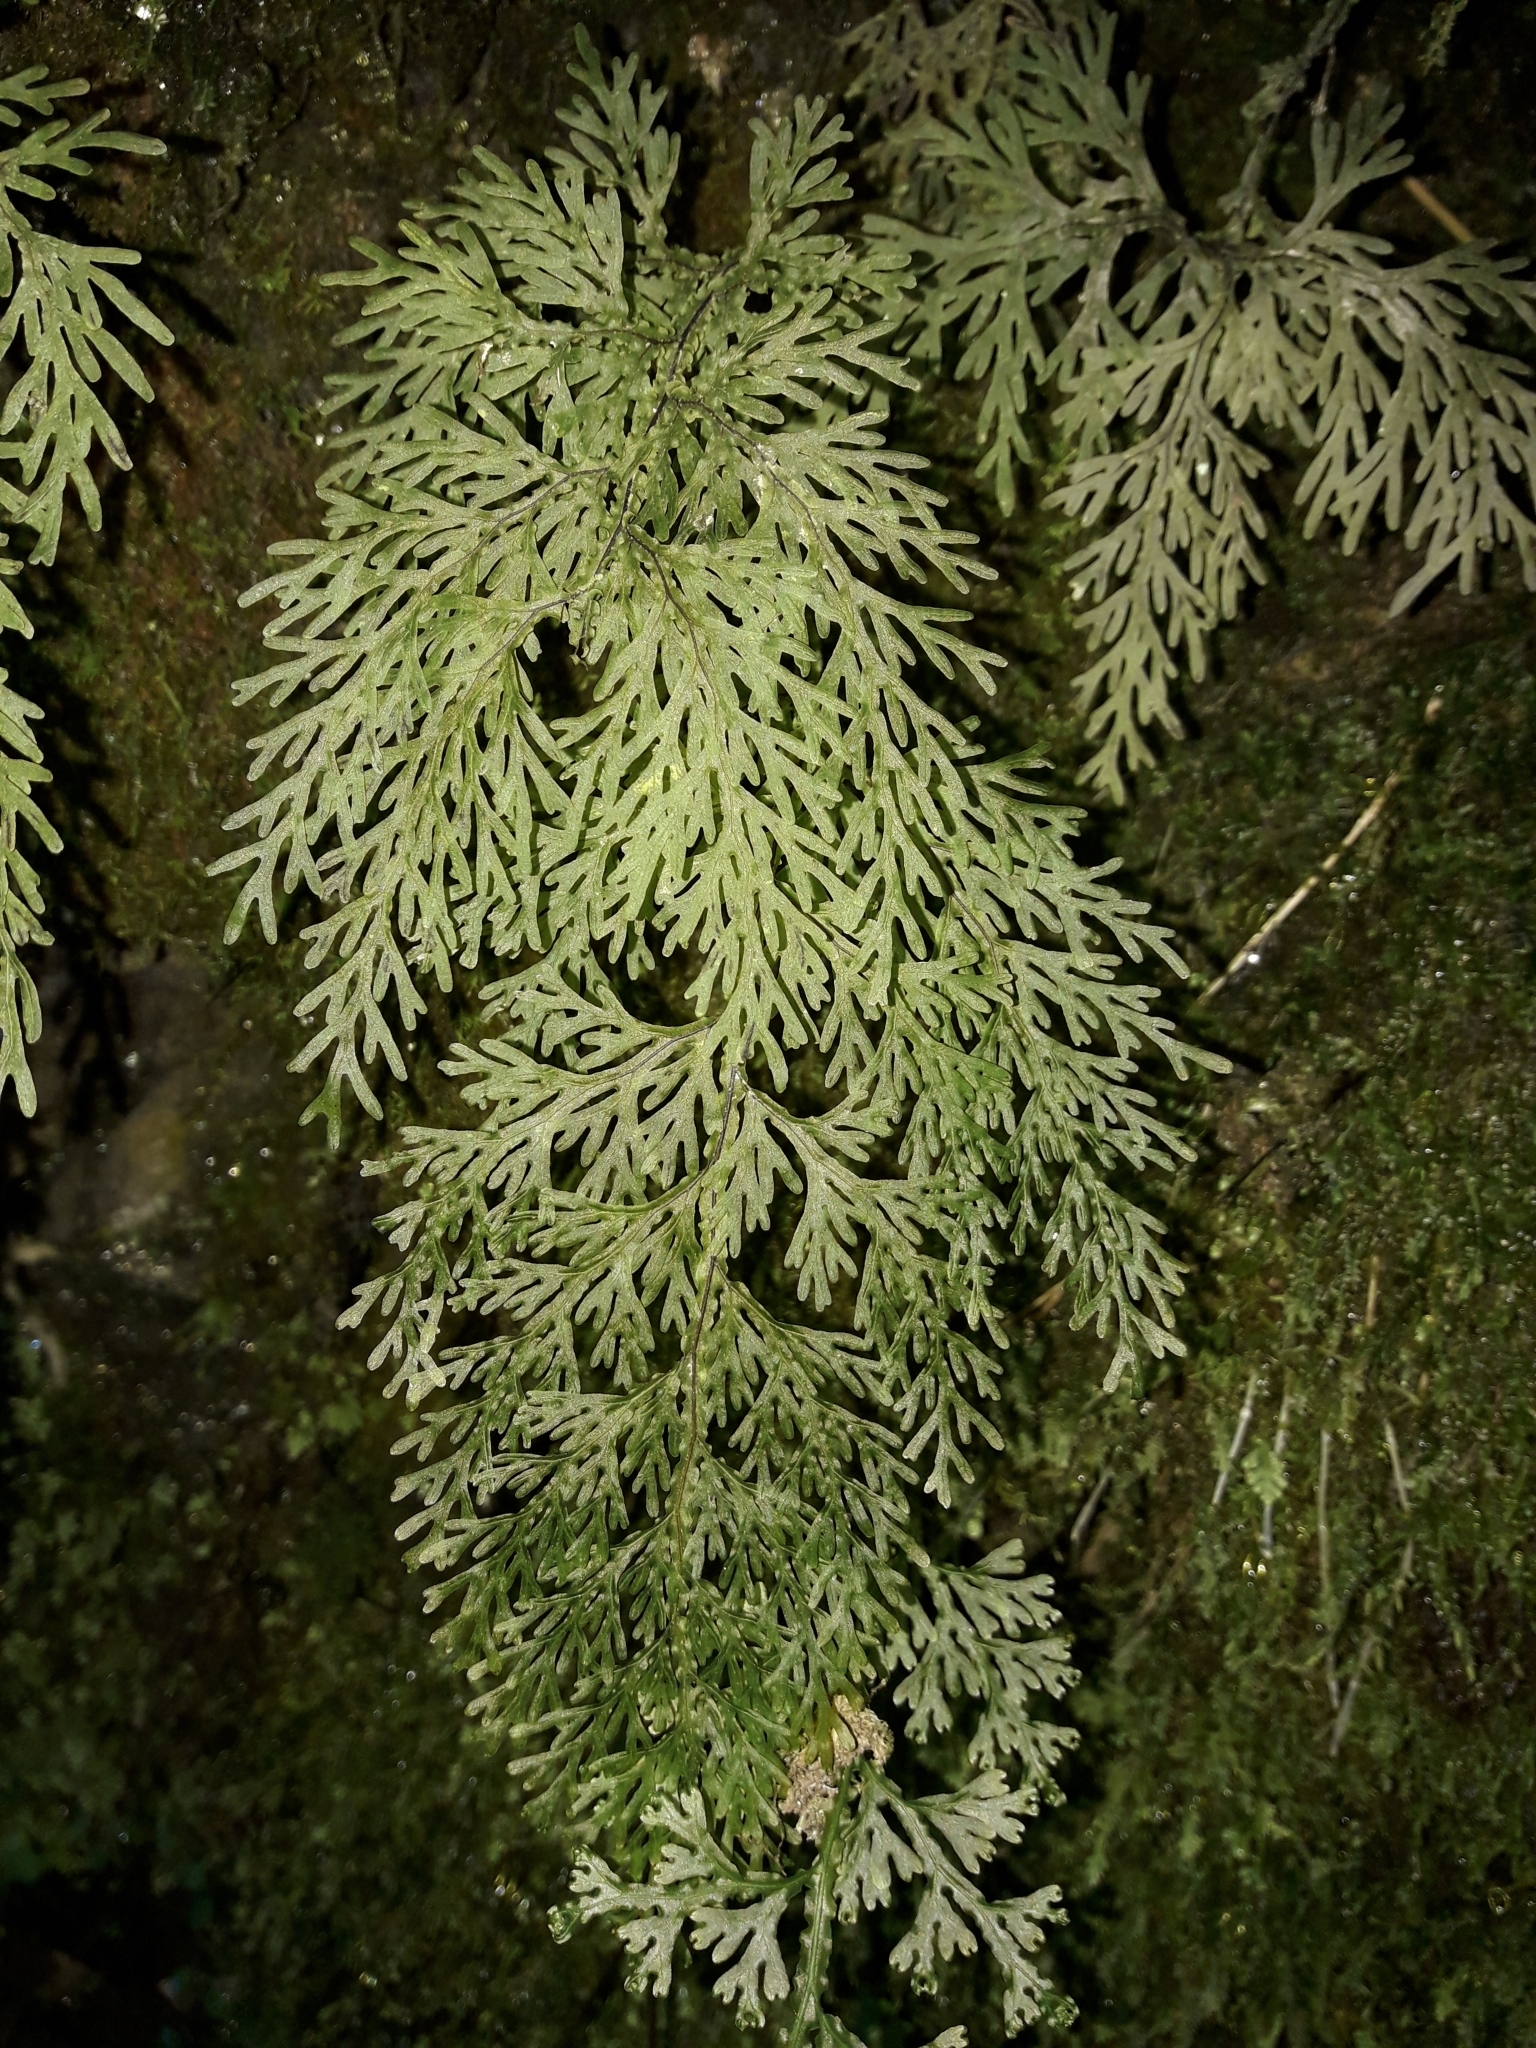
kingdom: Plantae
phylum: Tracheophyta
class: Polypodiopsida
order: Hymenophyllales
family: Hymenophyllaceae
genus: Hymenophyllum
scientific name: Hymenophyllum flexuosum
